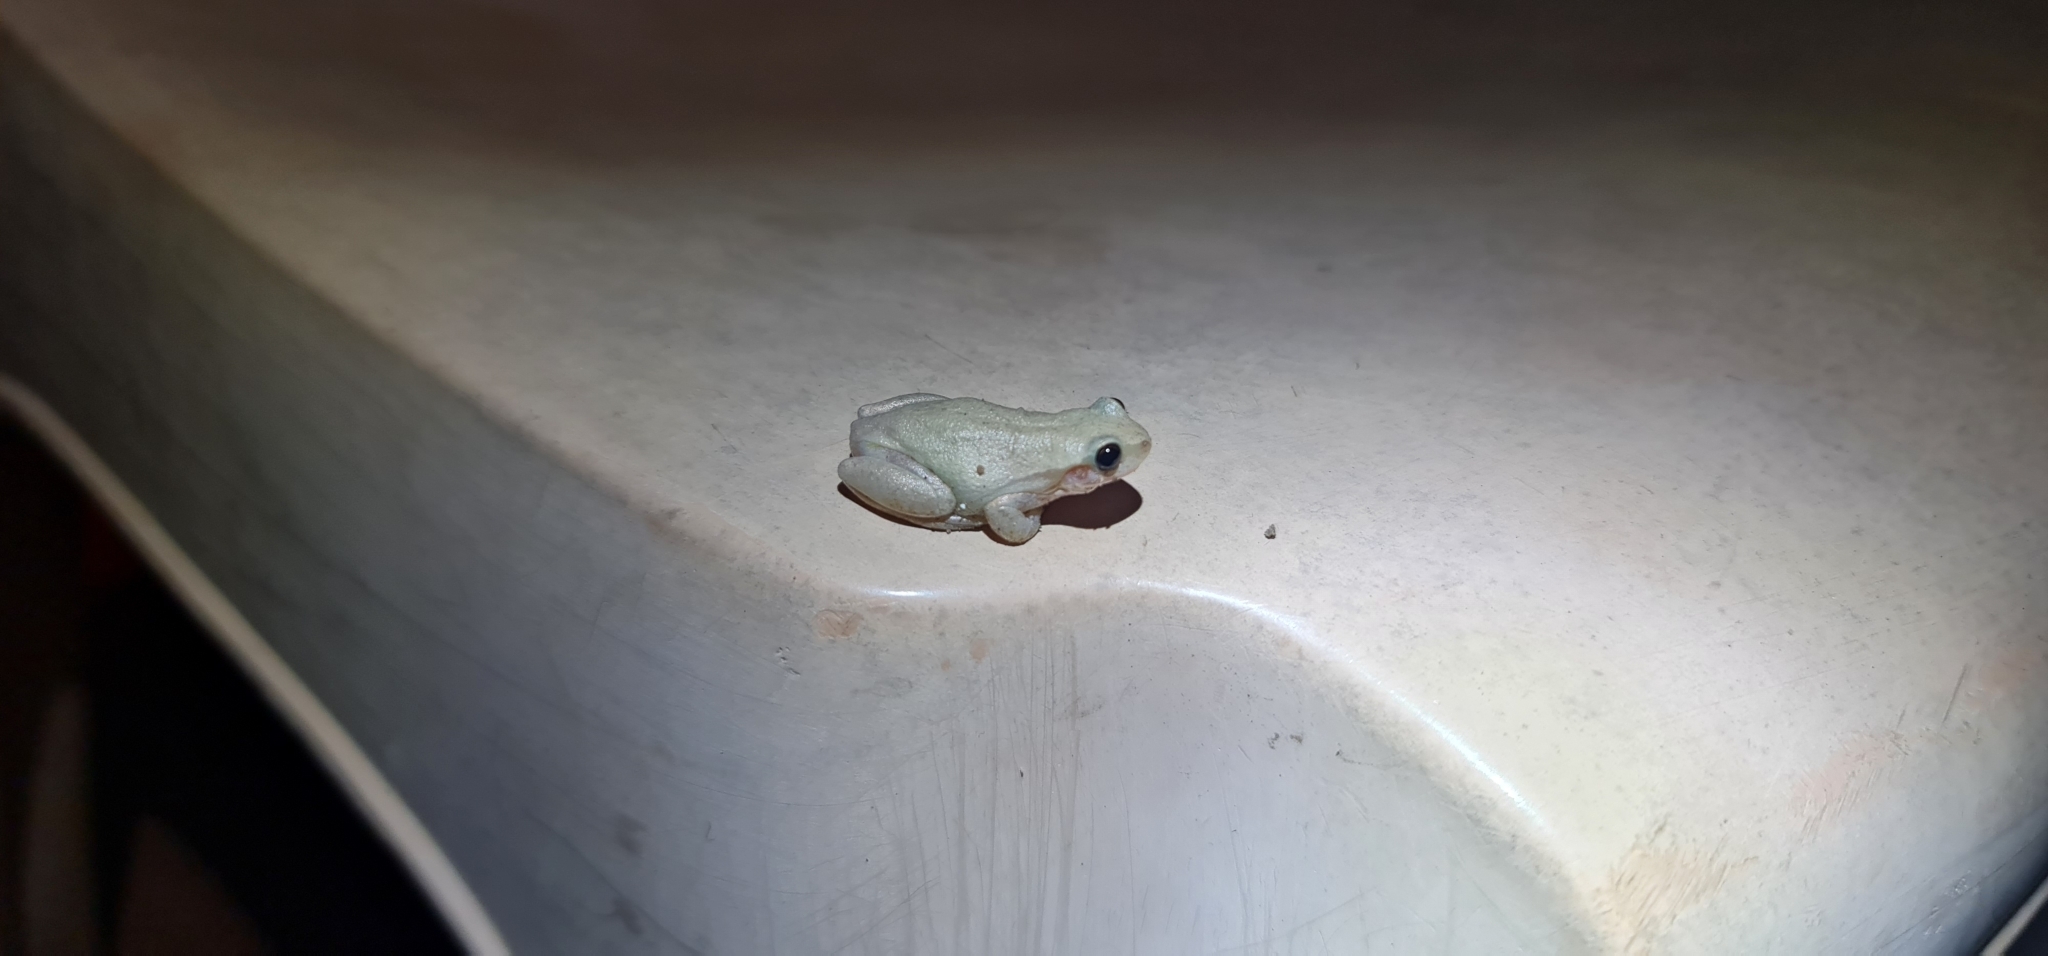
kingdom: Animalia
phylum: Chordata
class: Amphibia
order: Anura
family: Pelodryadidae
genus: Litoria
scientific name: Litoria rubella
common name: Desert tree frog
